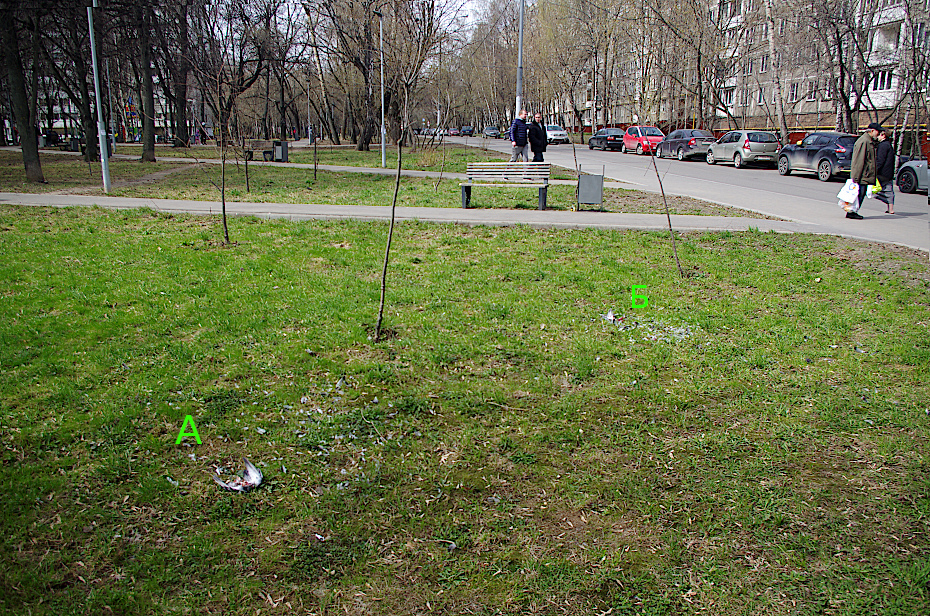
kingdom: Animalia
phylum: Chordata
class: Aves
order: Columbiformes
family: Columbidae
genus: Columba
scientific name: Columba livia
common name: Rock pigeon
